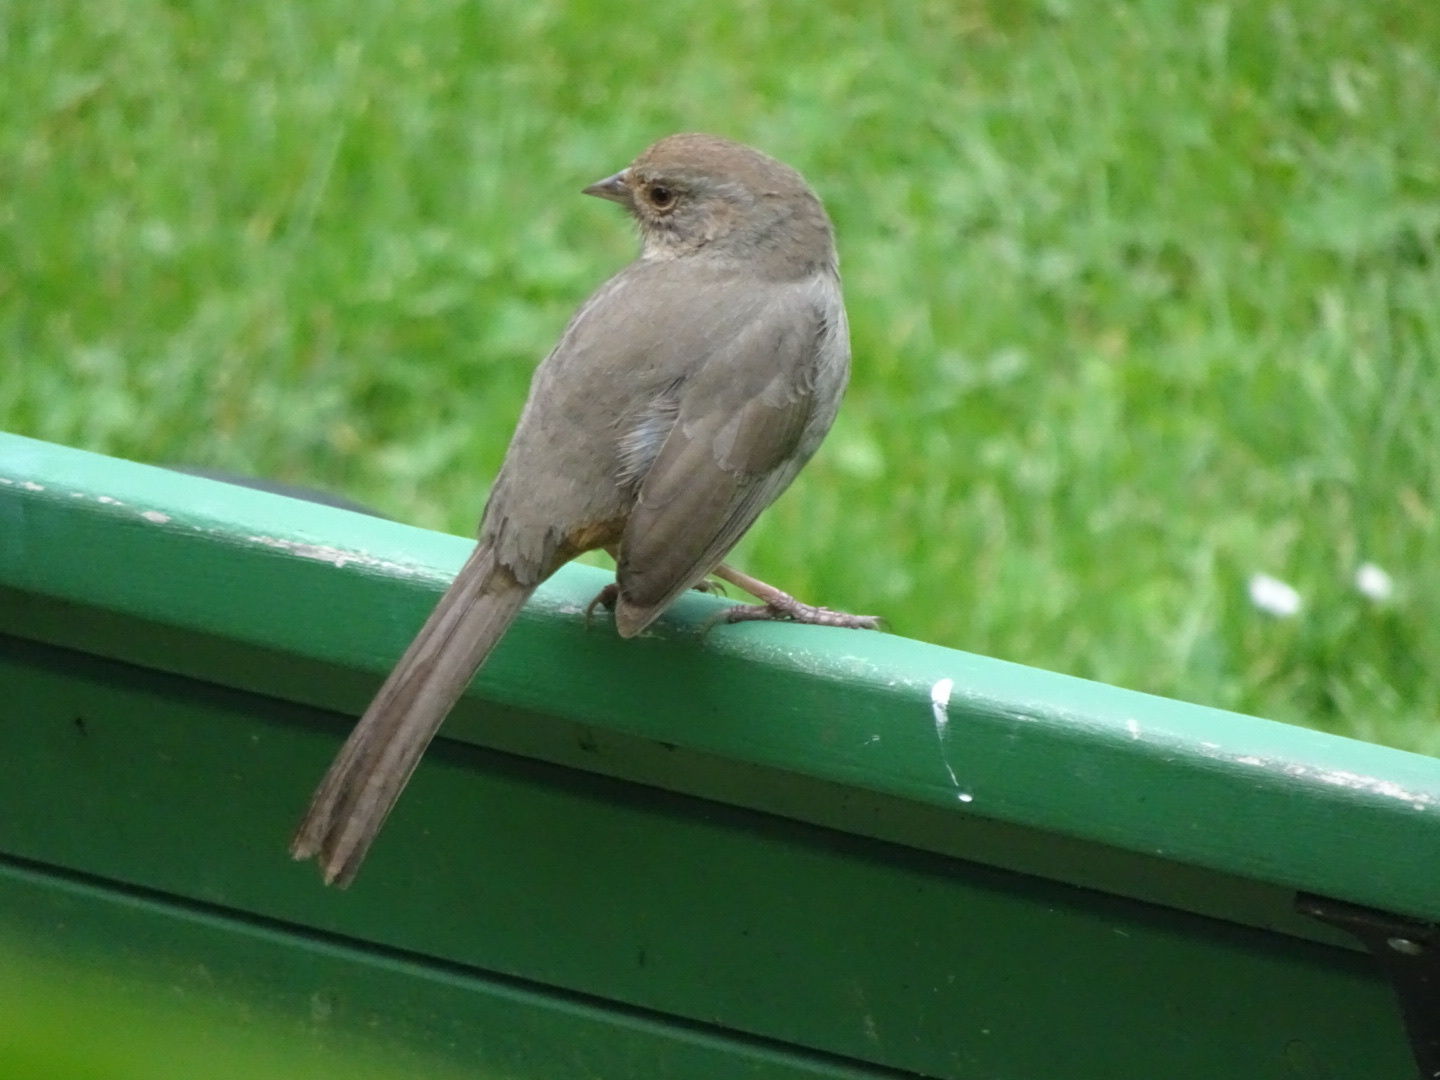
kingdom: Animalia
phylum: Chordata
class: Aves
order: Passeriformes
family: Passerellidae
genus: Melozone
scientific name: Melozone crissalis
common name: California towhee
